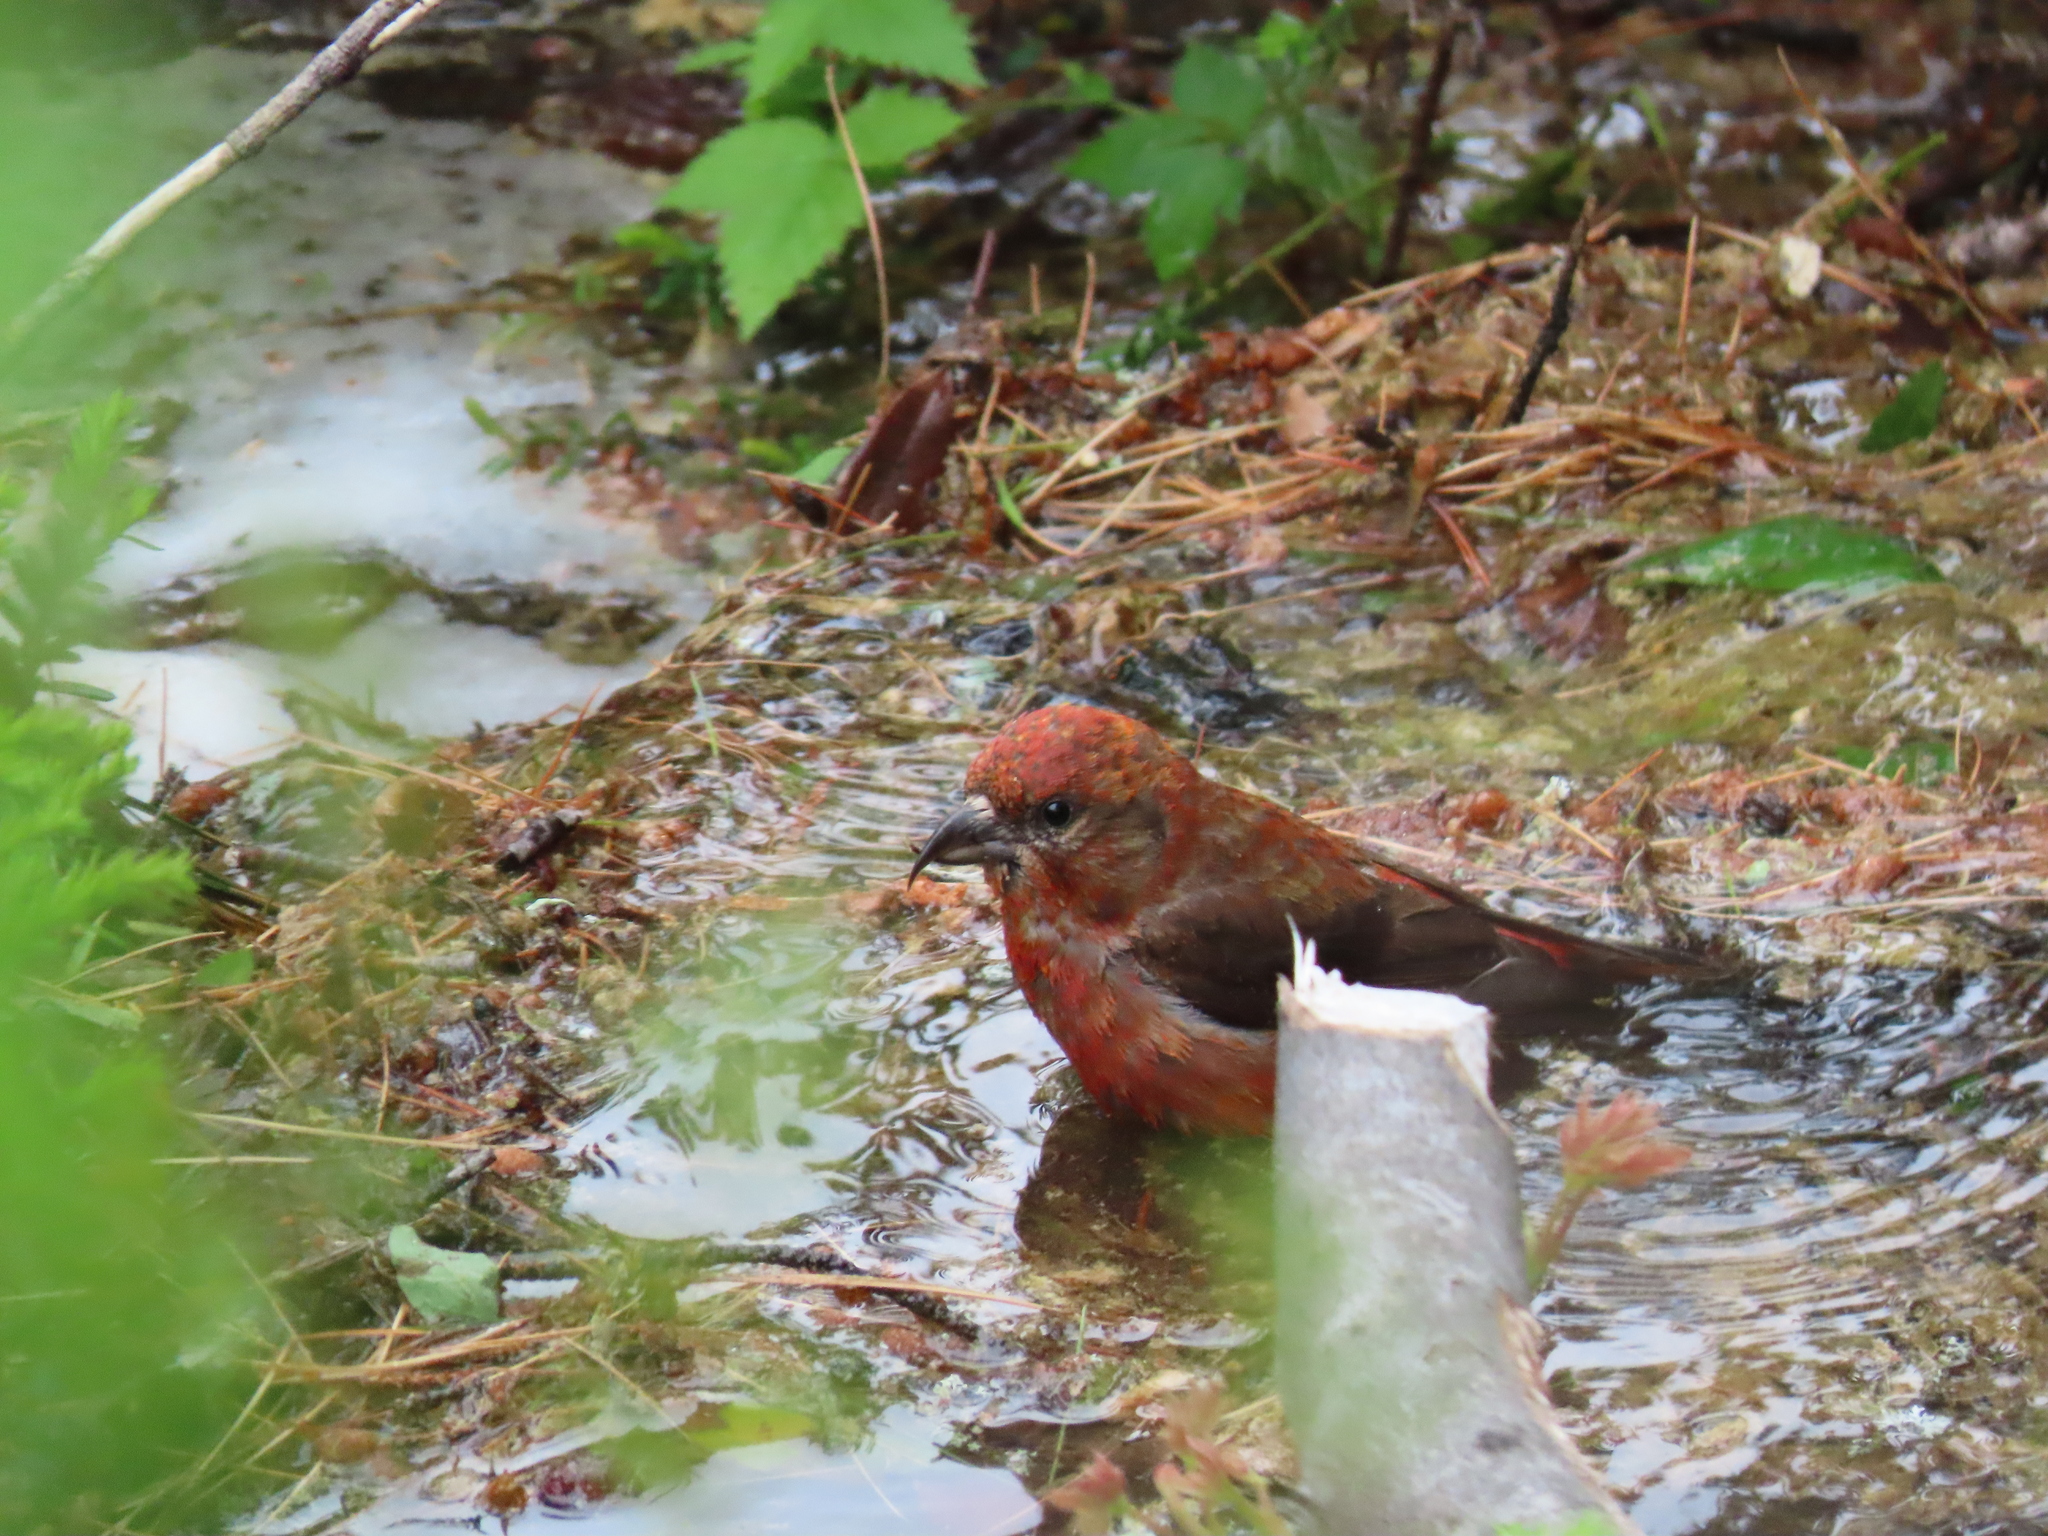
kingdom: Animalia
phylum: Chordata
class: Aves
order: Passeriformes
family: Fringillidae
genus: Loxia
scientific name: Loxia curvirostra
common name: Red crossbill
